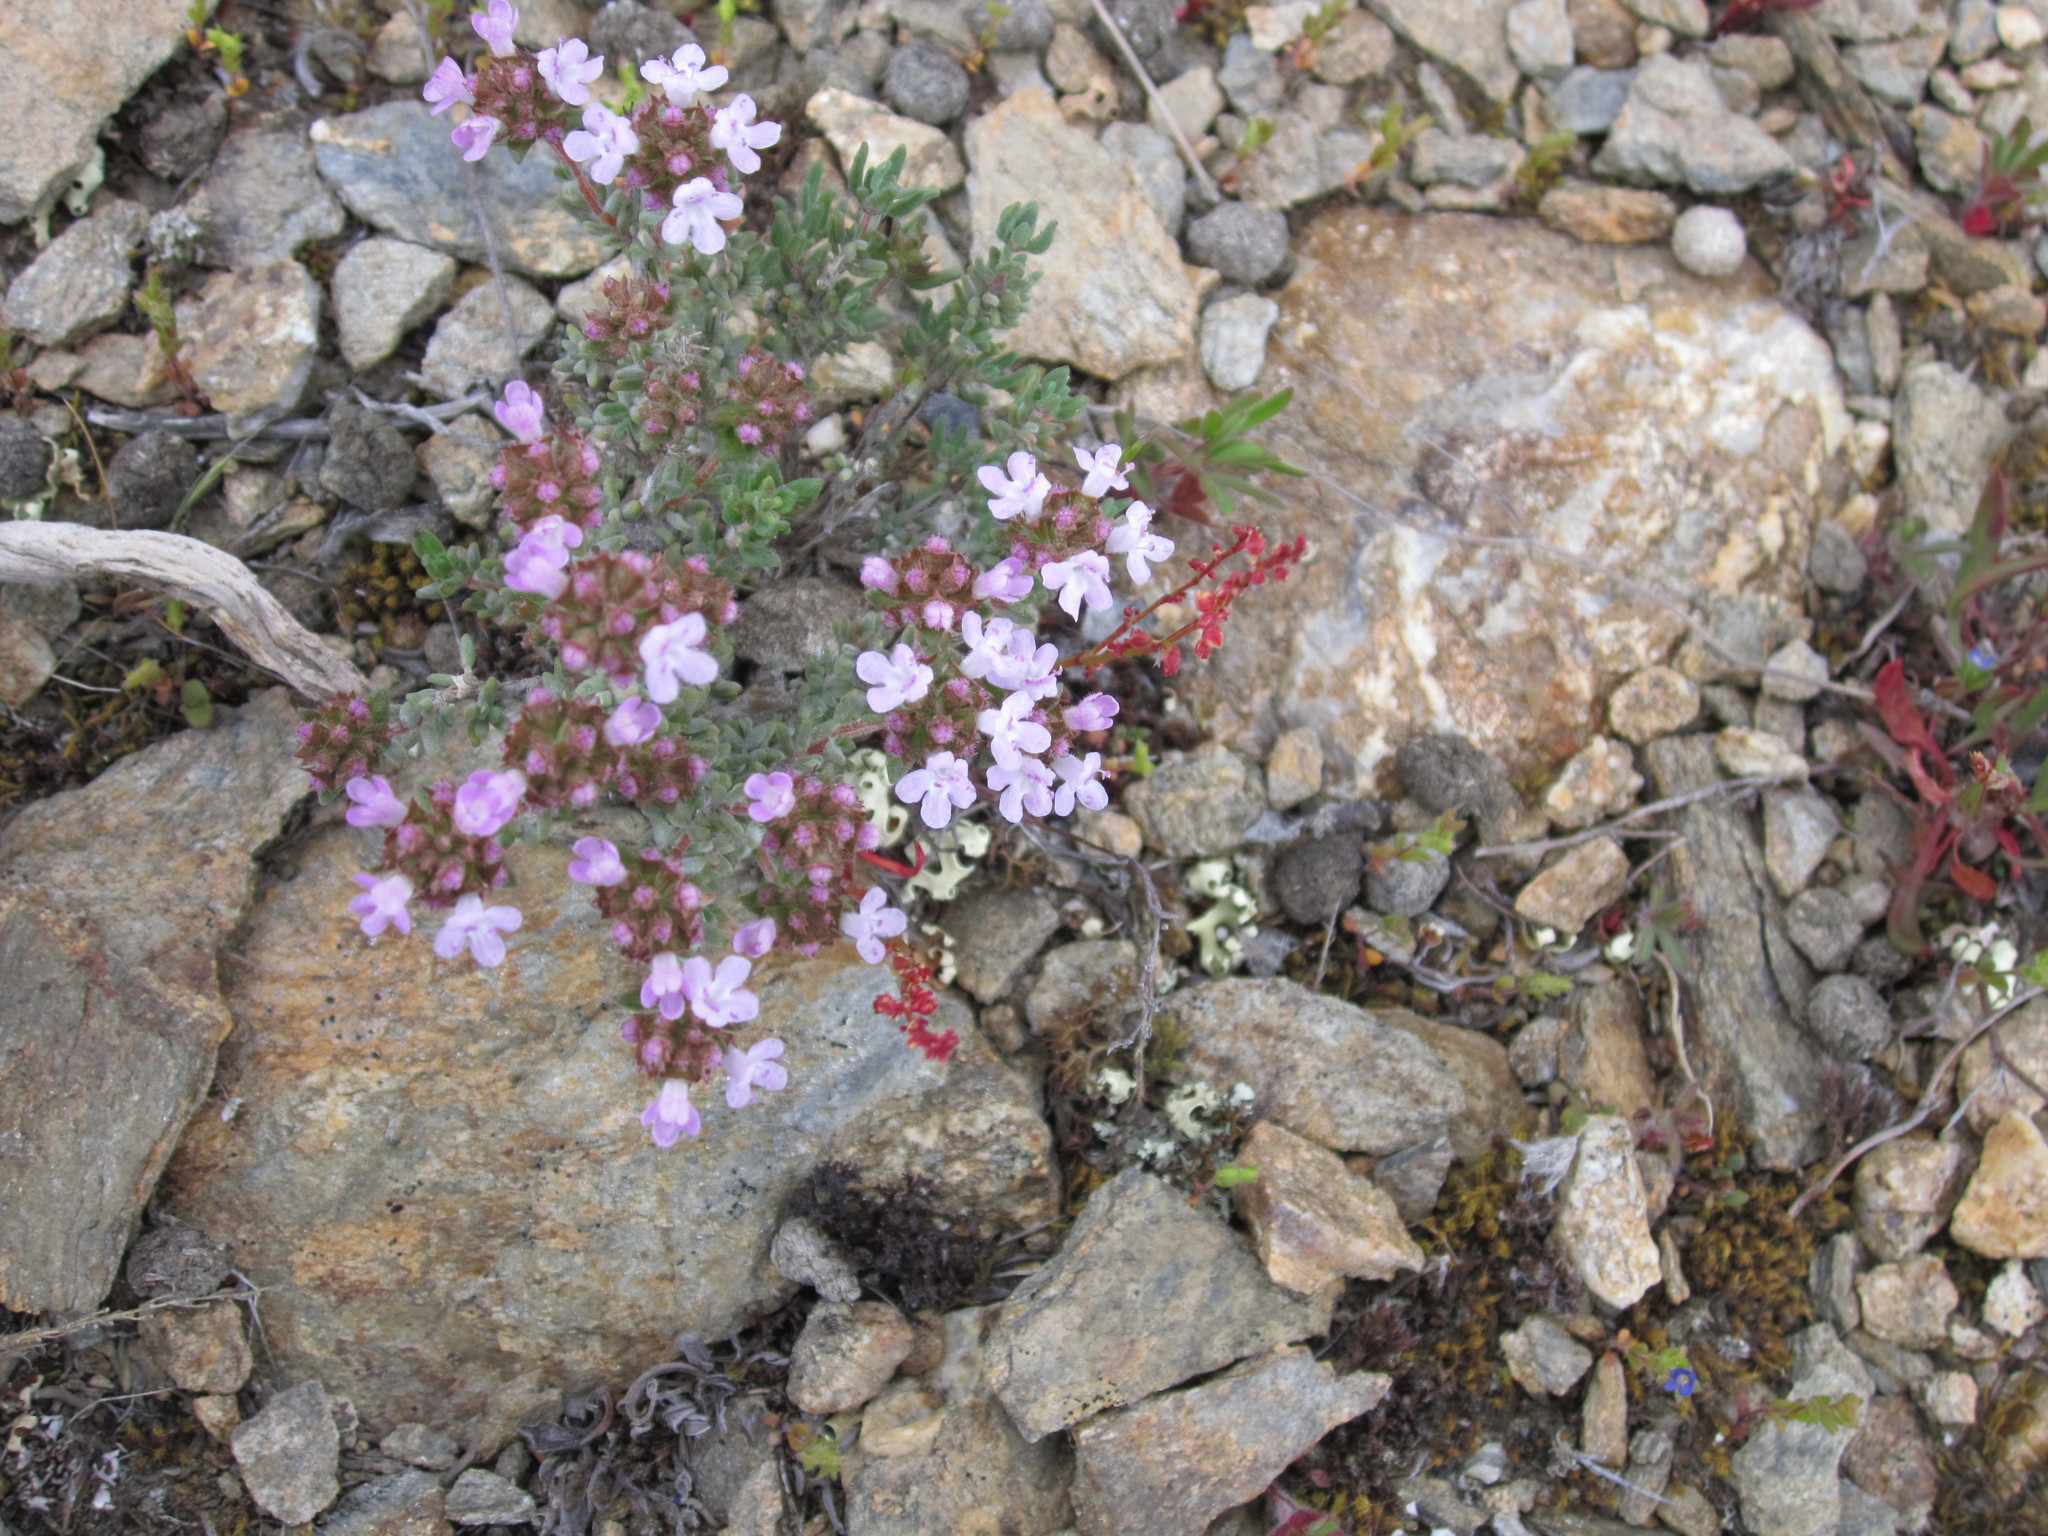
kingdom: Plantae
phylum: Tracheophyta
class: Magnoliopsida
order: Lamiales
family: Lamiaceae
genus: Thymus
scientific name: Thymus vulgaris
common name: Garden thyme
